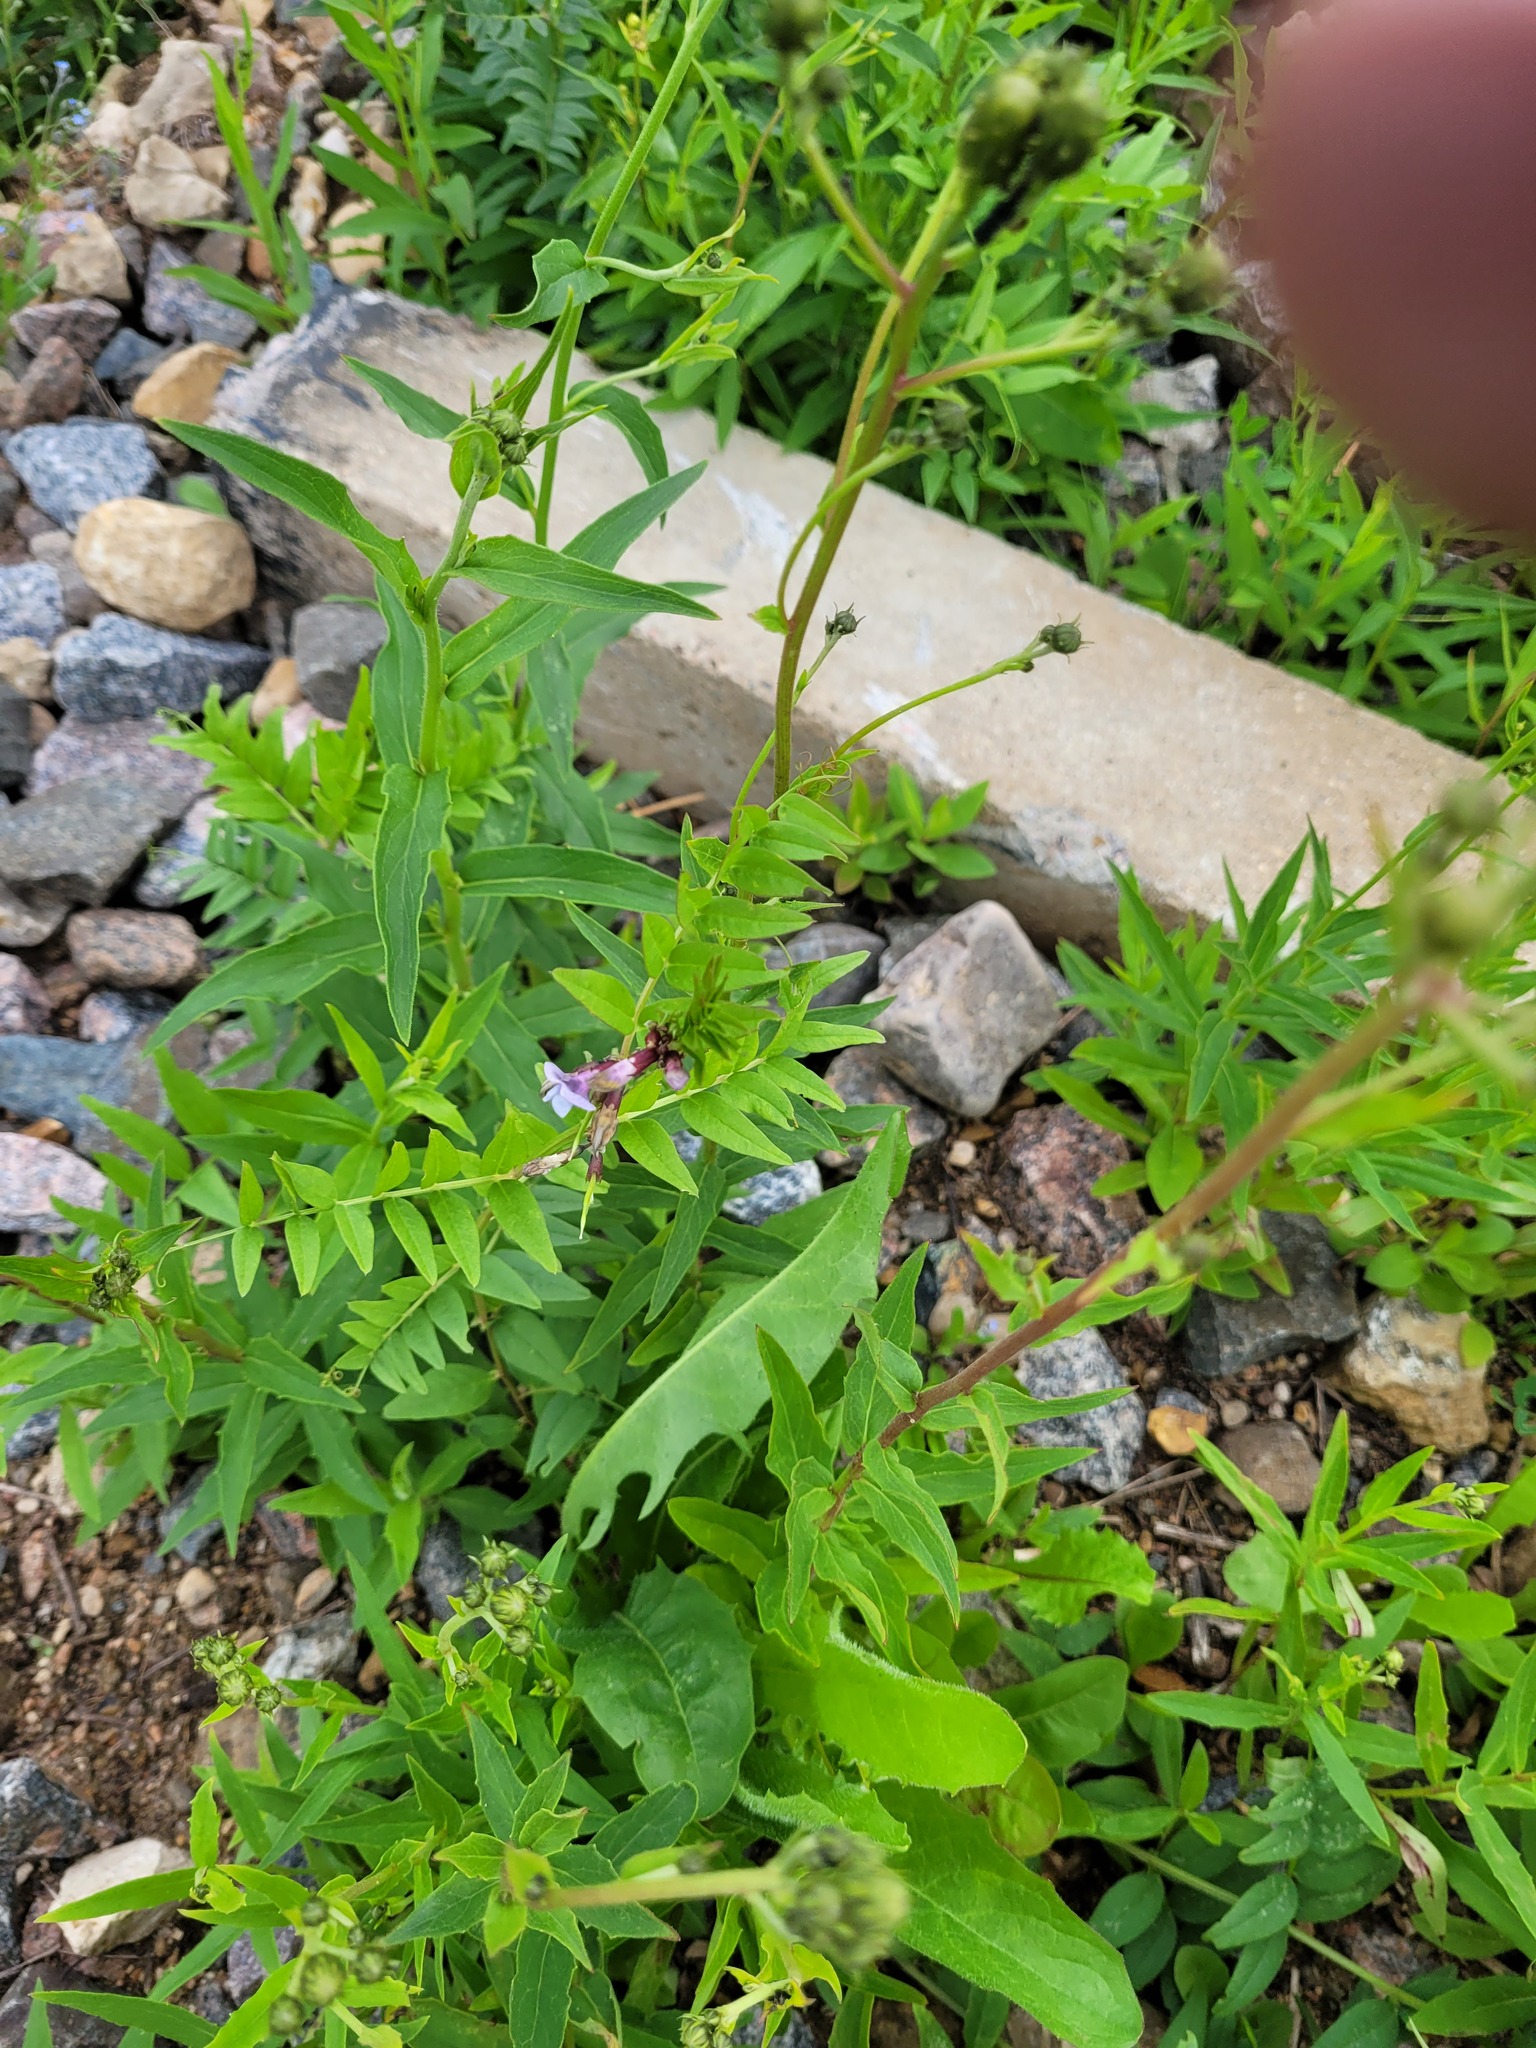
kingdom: Plantae
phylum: Tracheophyta
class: Magnoliopsida
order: Fabales
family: Fabaceae
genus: Vicia
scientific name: Vicia sepium
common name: Bush vetch
